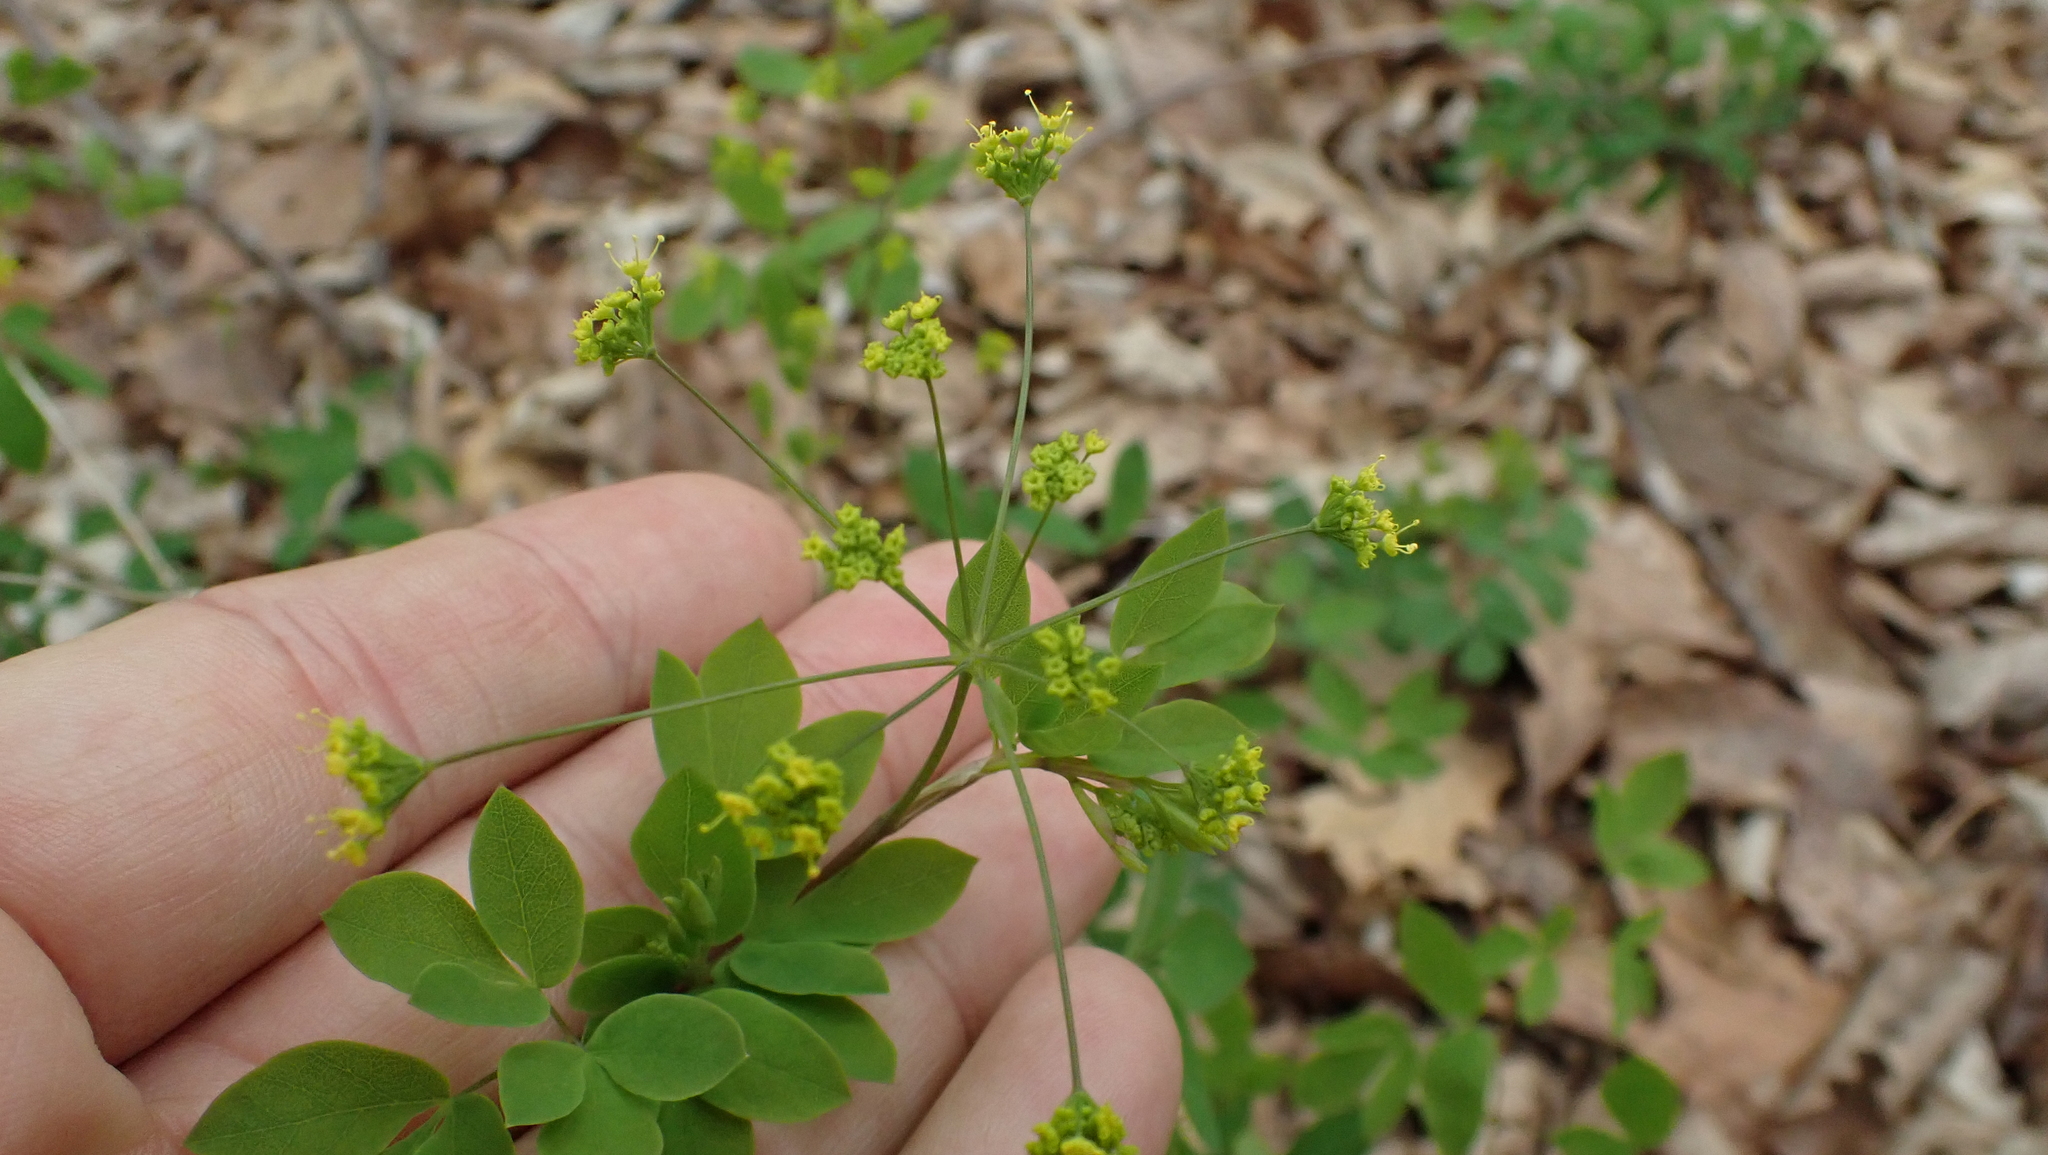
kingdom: Plantae
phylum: Tracheophyta
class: Magnoliopsida
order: Apiales
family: Apiaceae
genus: Taenidia
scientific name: Taenidia integerrima
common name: Golden alexander
